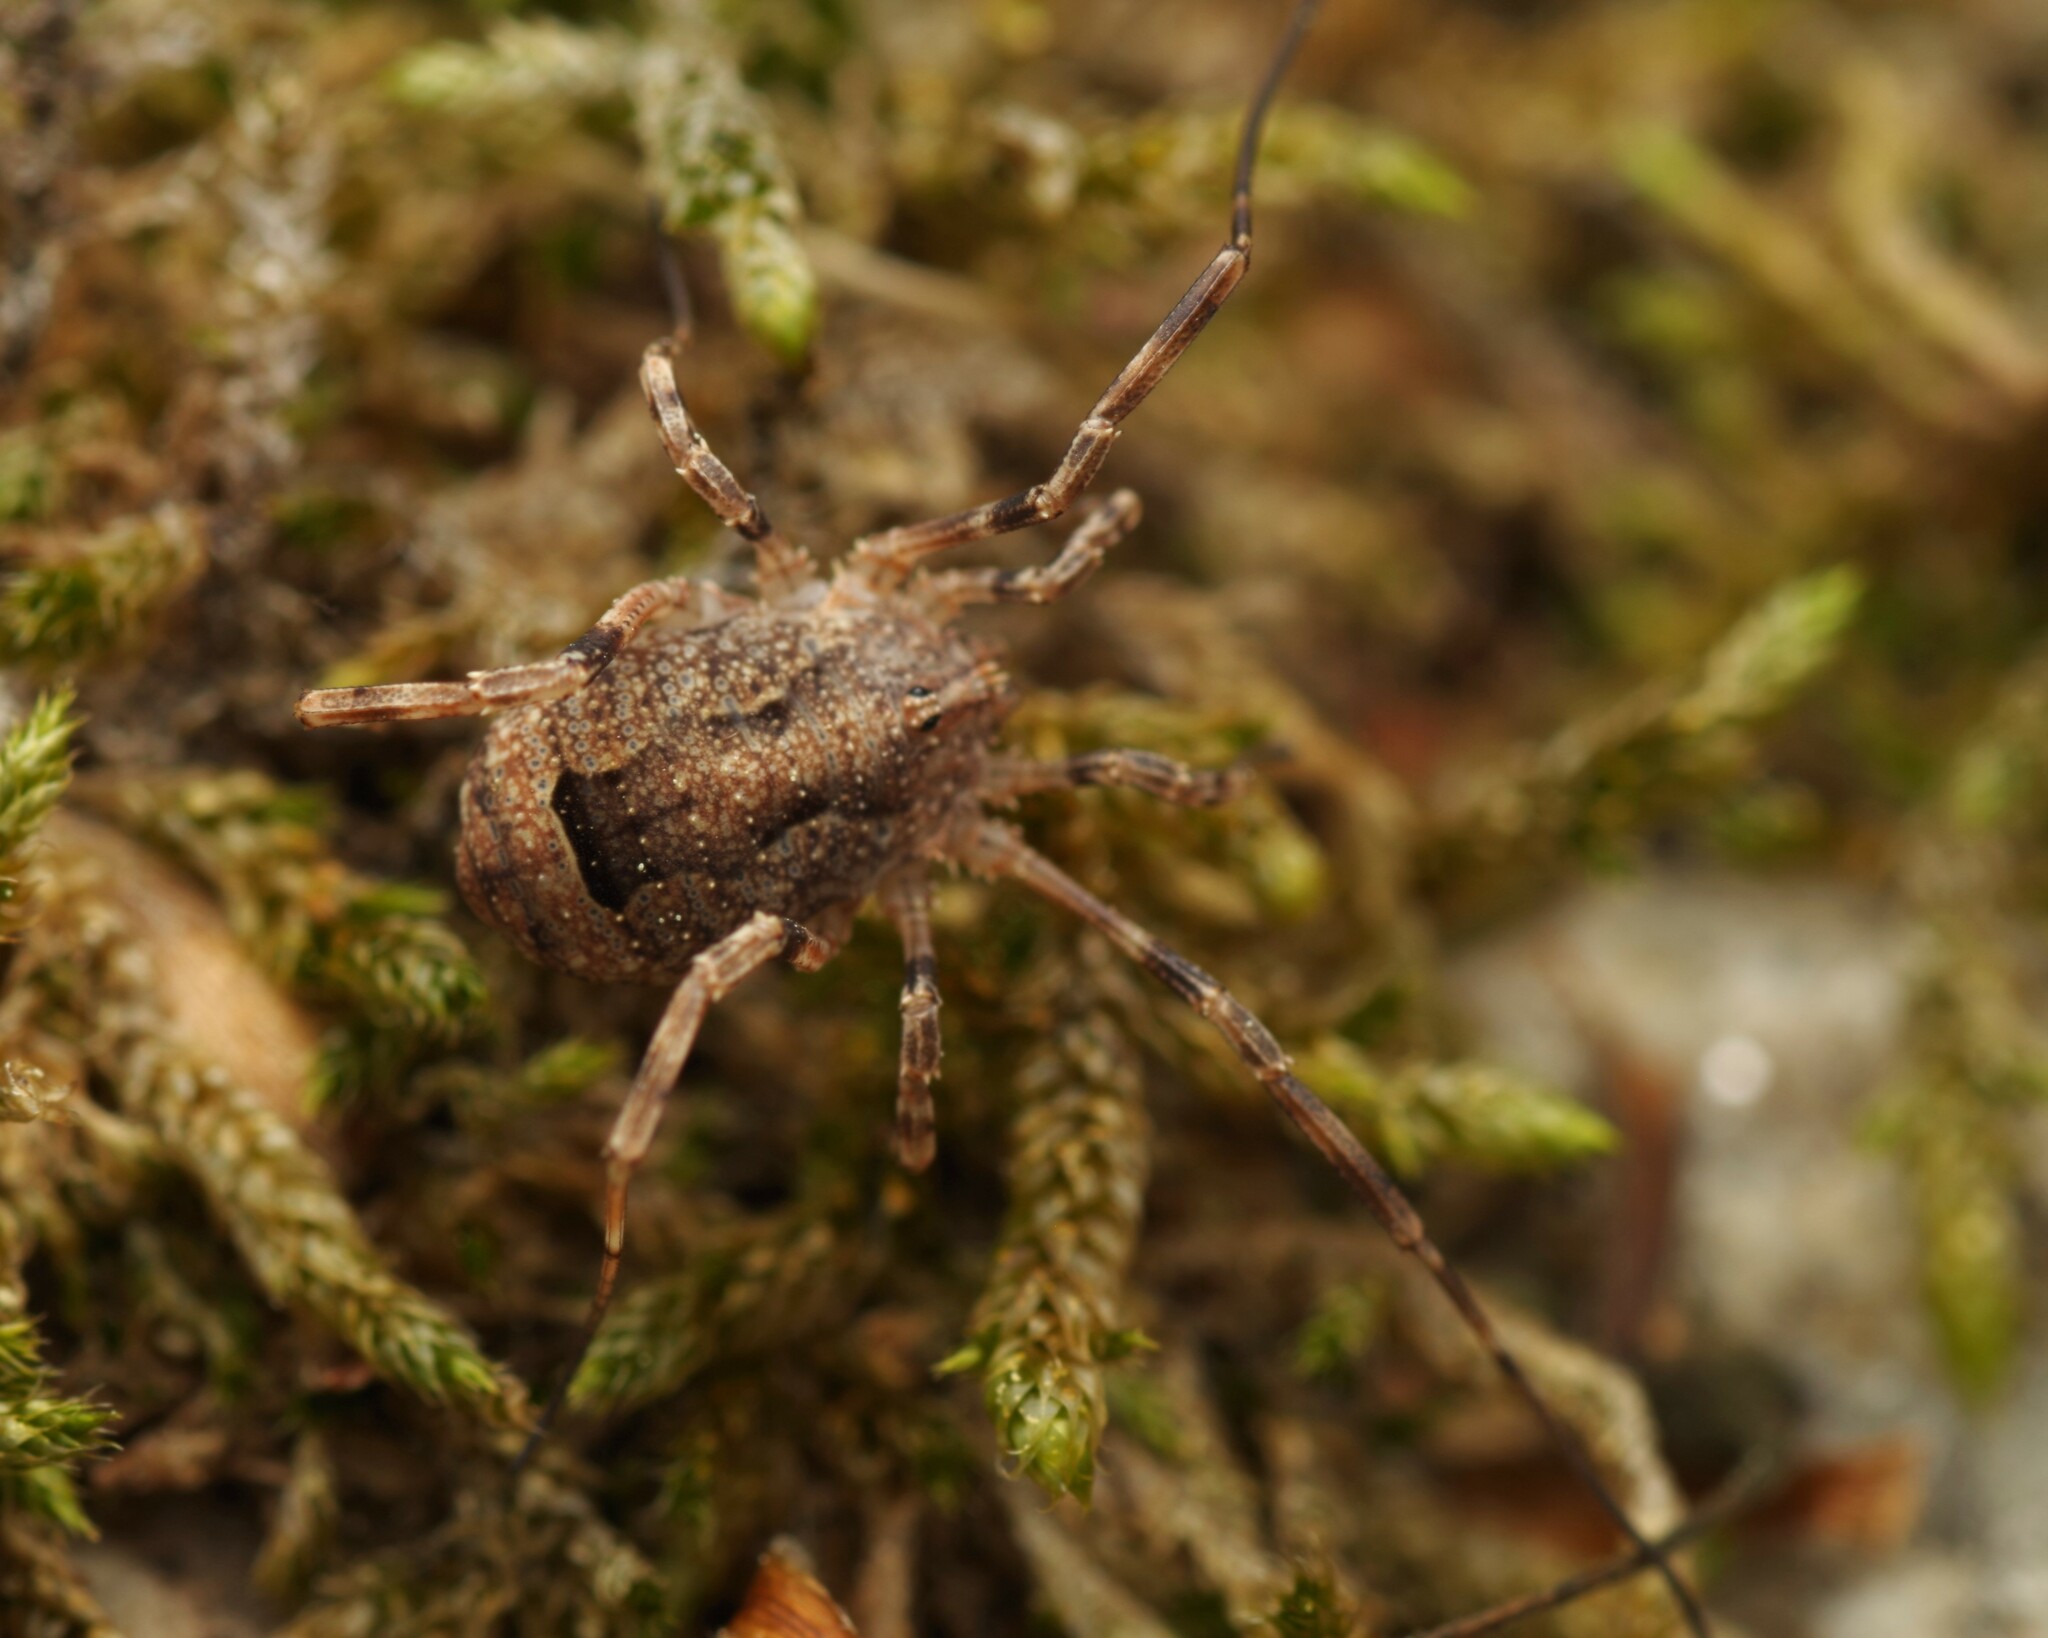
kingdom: Animalia
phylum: Arthropoda
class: Arachnida
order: Opiliones
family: Phalangiidae
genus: Odiellus
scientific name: Odiellus spinosus
